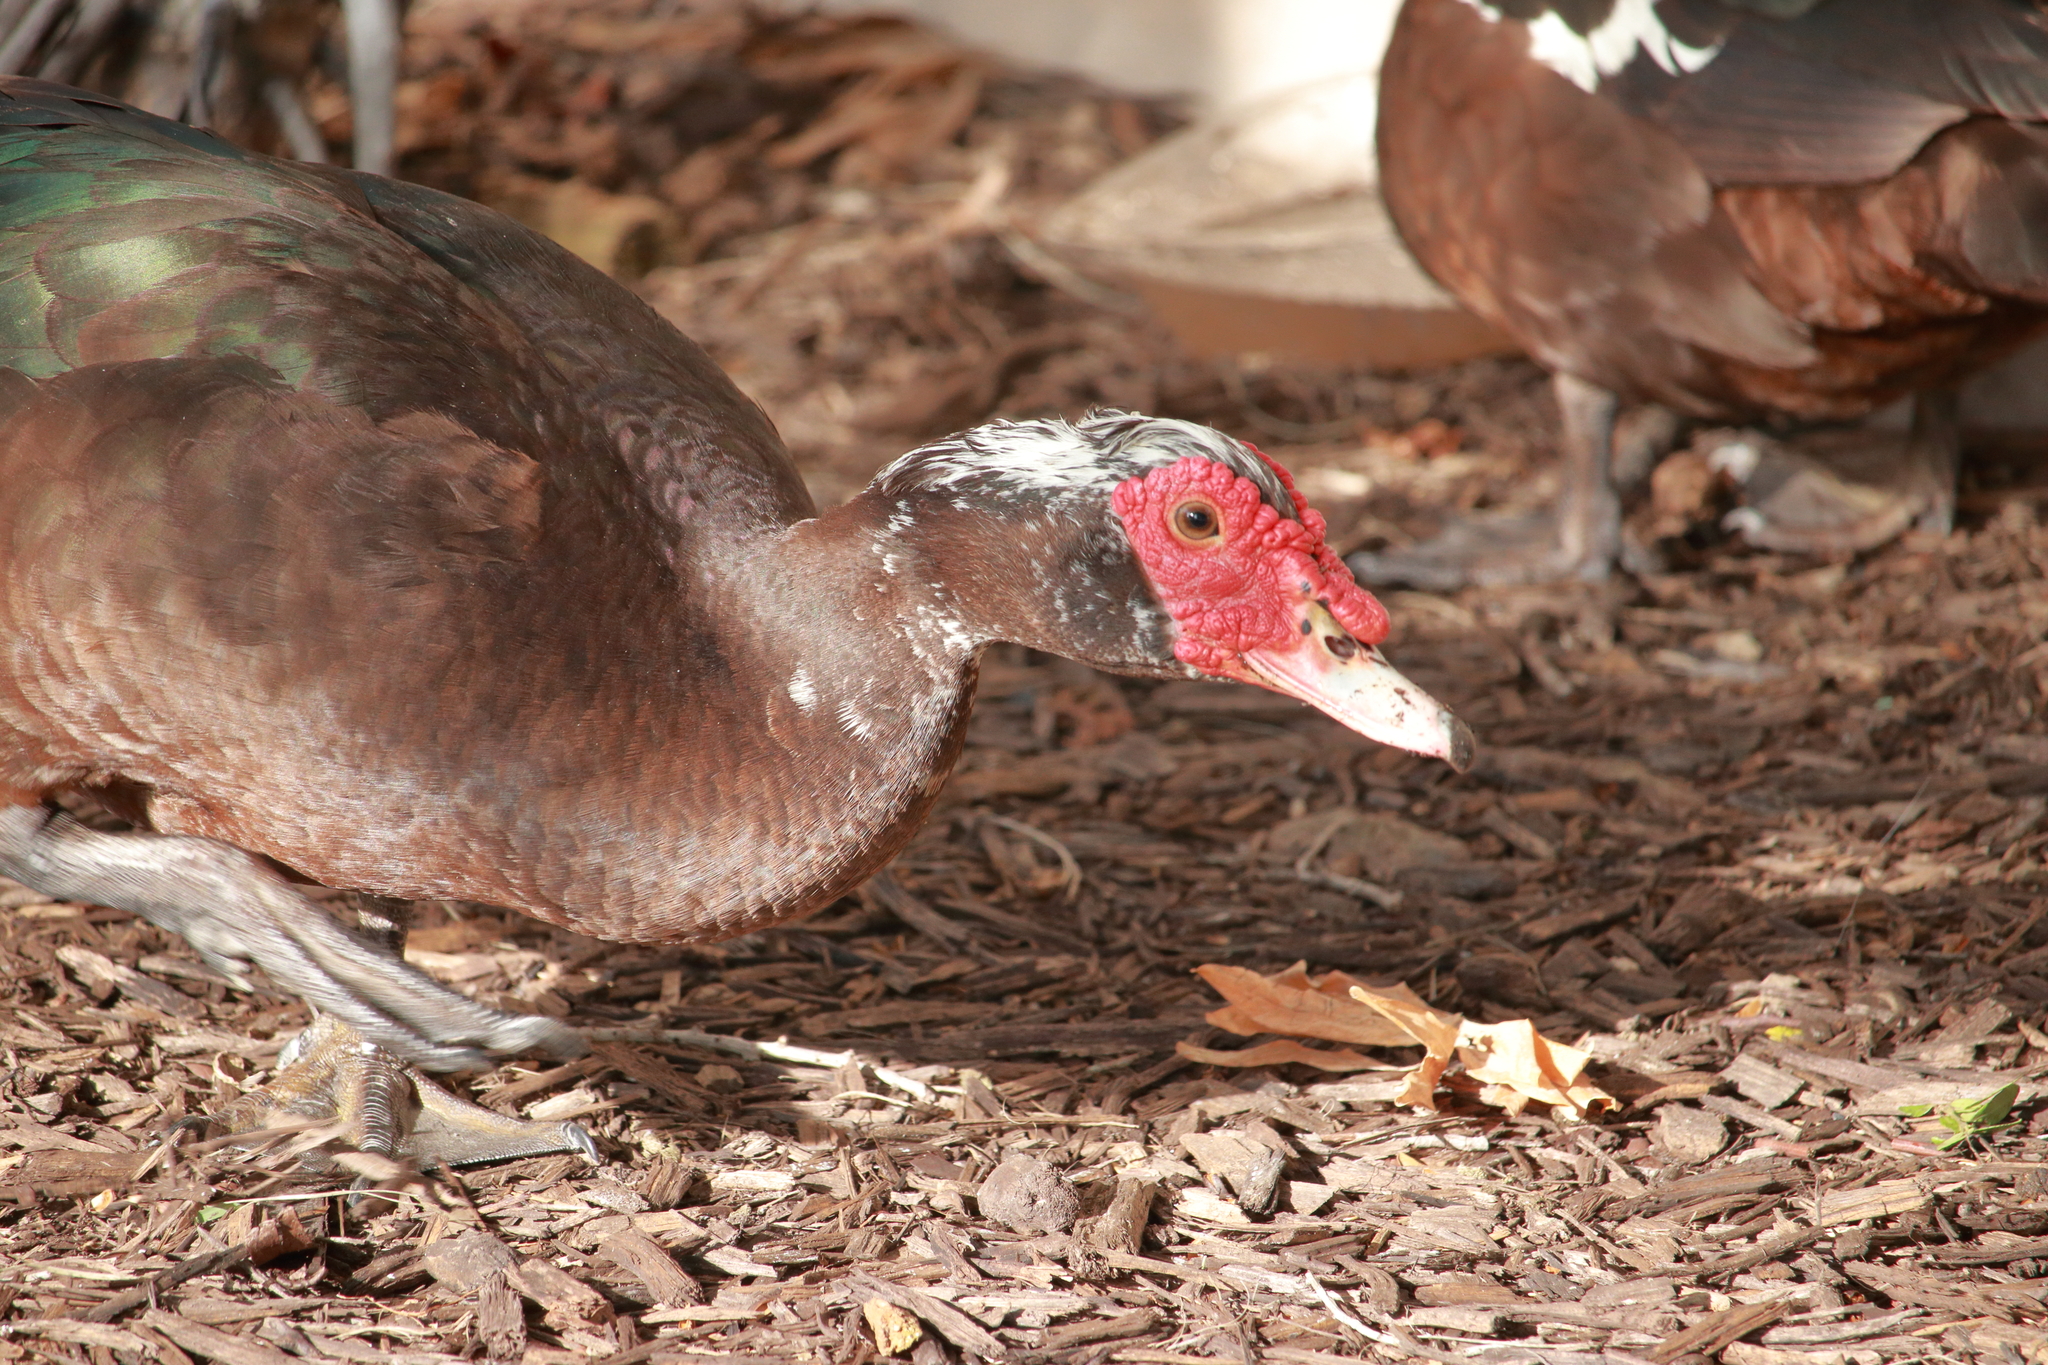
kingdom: Animalia
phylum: Chordata
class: Aves
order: Anseriformes
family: Anatidae
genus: Cairina
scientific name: Cairina moschata
